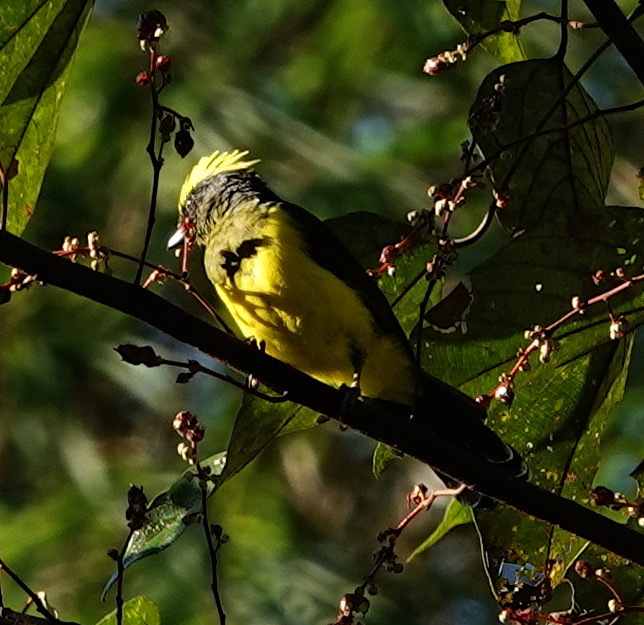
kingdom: Animalia
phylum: Chordata
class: Aves
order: Passeriformes
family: Paridae
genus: Melanochlora
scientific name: Melanochlora sultanea
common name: Sultan tit
